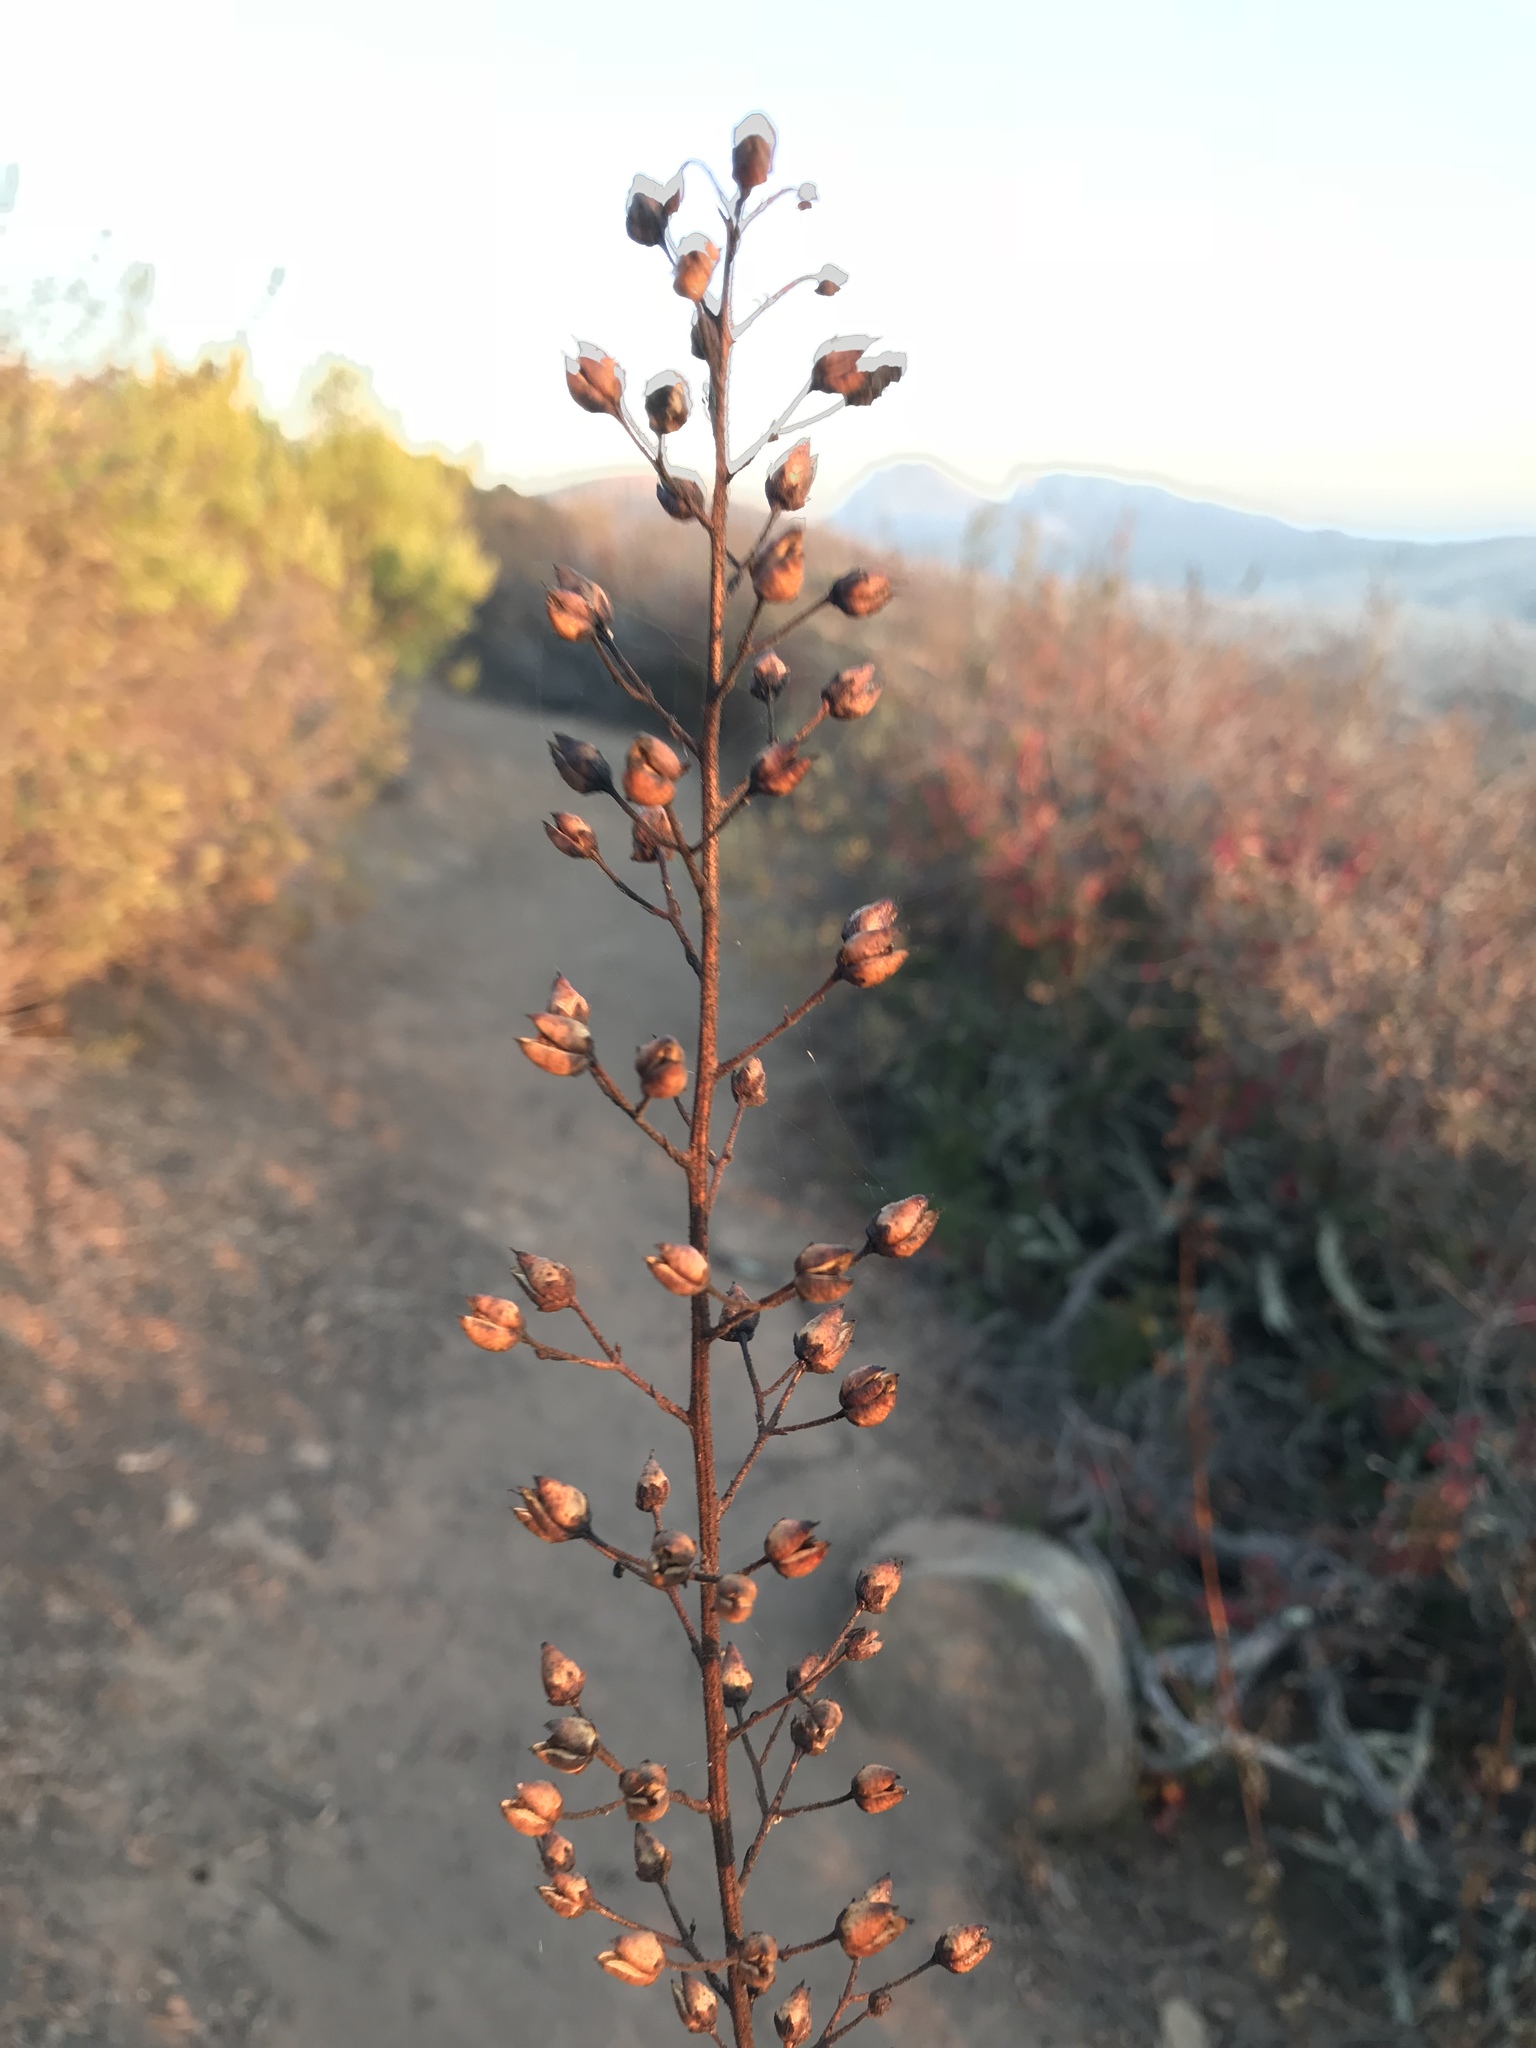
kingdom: Plantae
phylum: Tracheophyta
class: Magnoliopsida
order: Lamiales
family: Scrophulariaceae
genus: Scrophularia
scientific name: Scrophularia californica
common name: California figwort
